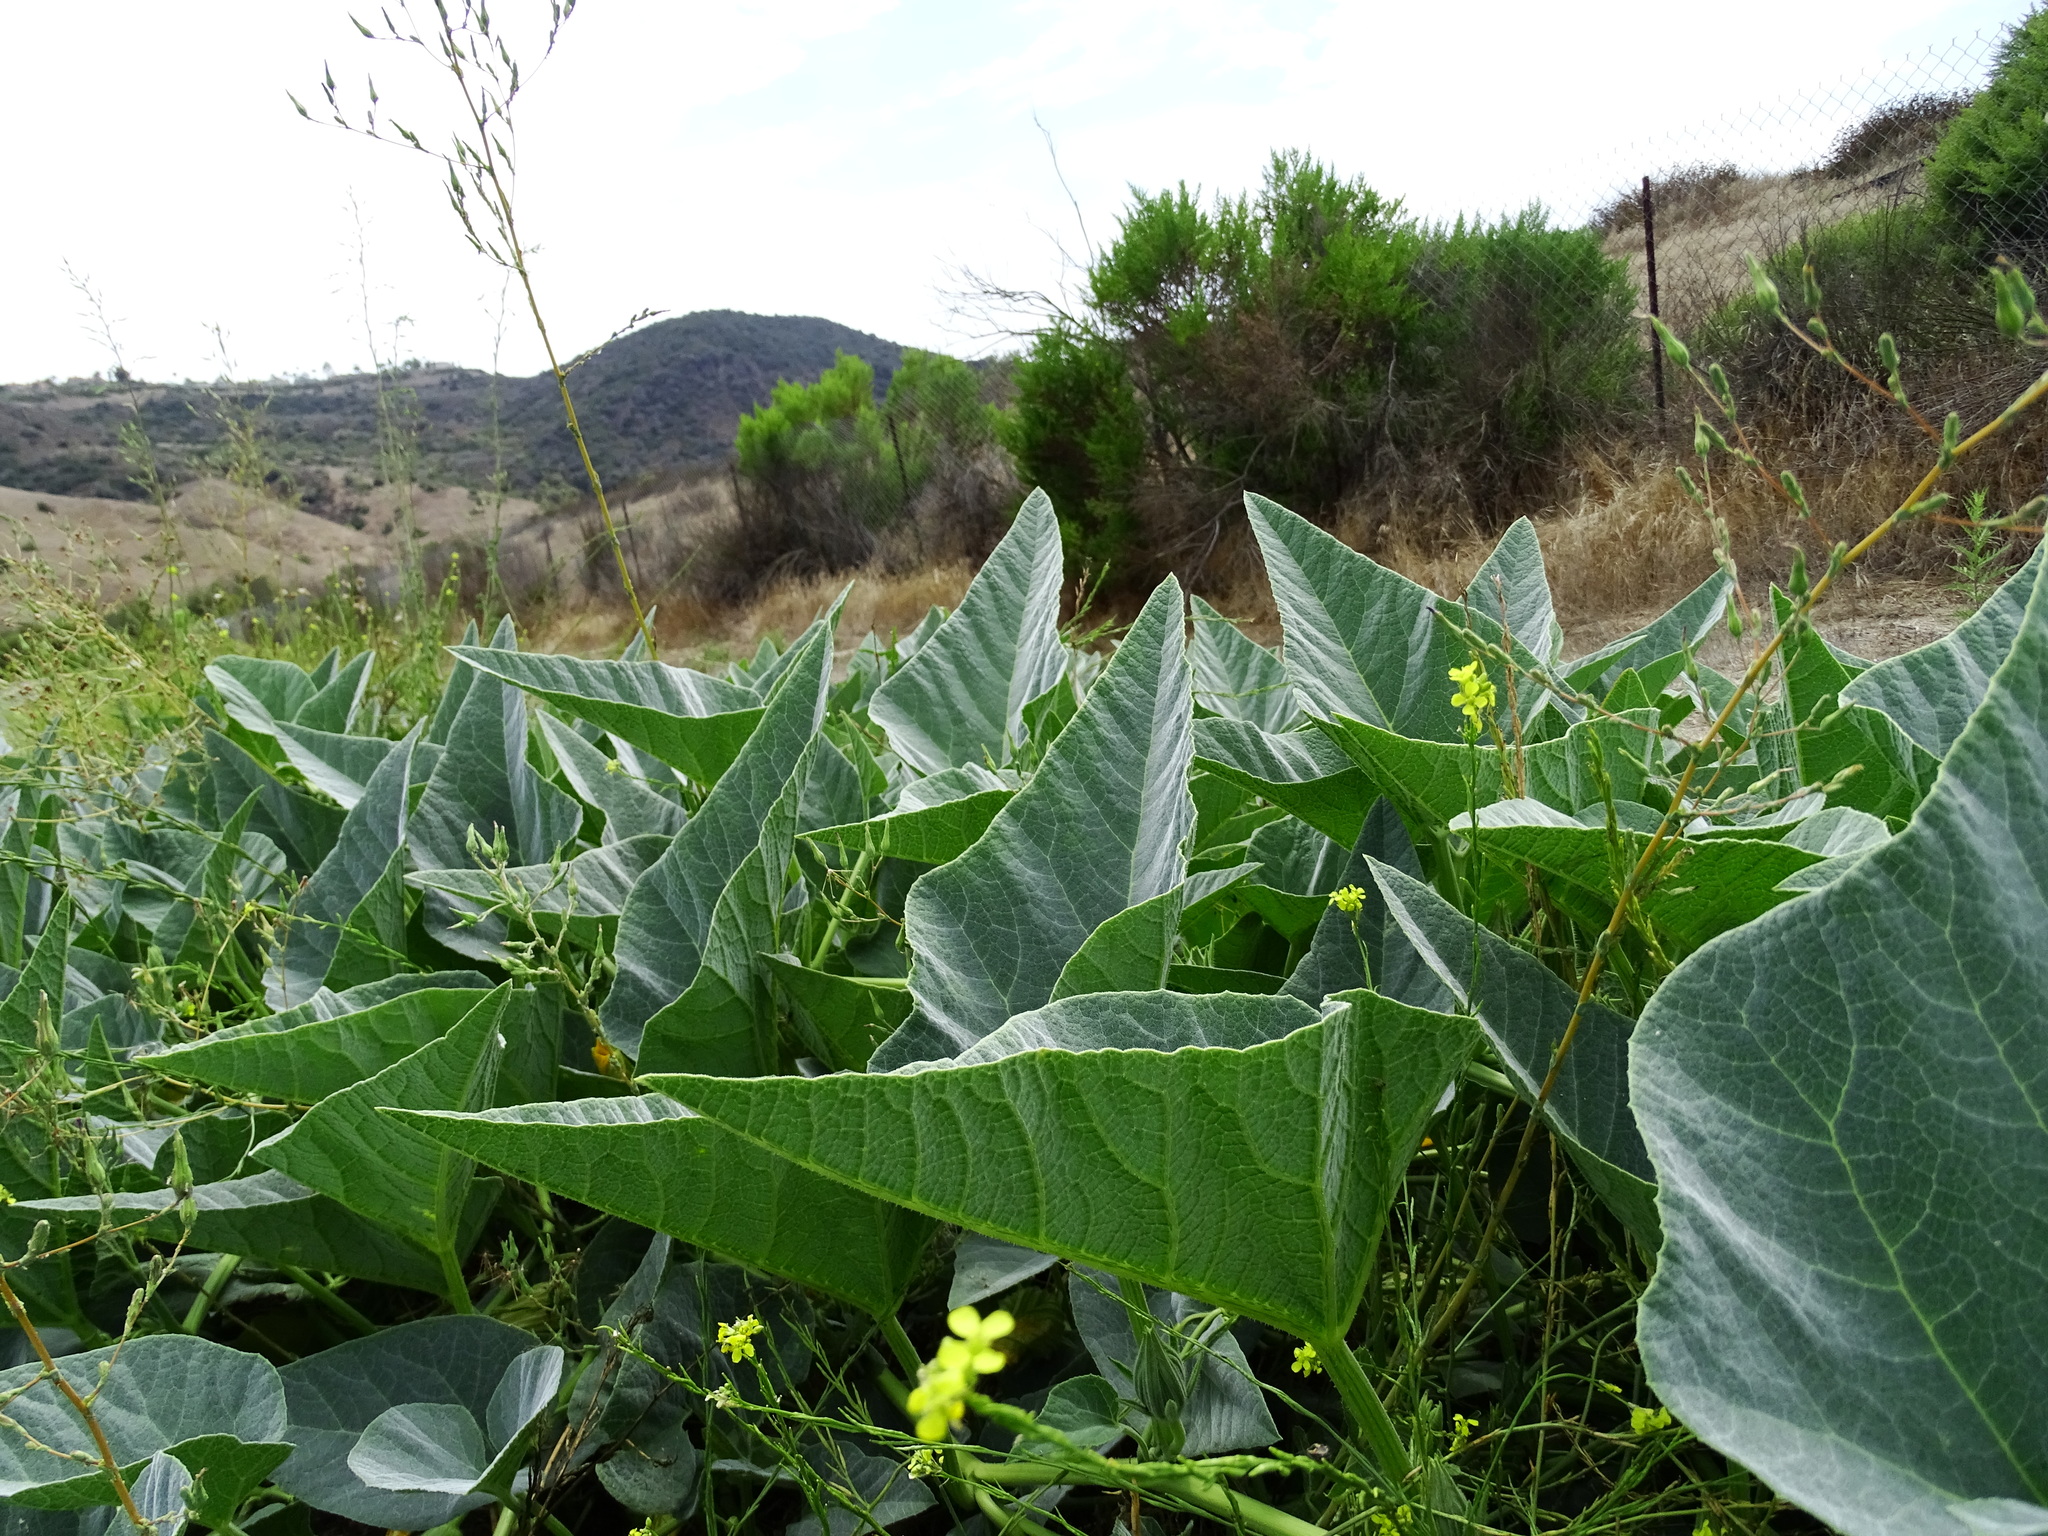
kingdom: Plantae
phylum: Tracheophyta
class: Magnoliopsida
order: Cucurbitales
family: Cucurbitaceae
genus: Cucurbita
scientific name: Cucurbita foetidissima
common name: Buffalo gourd
